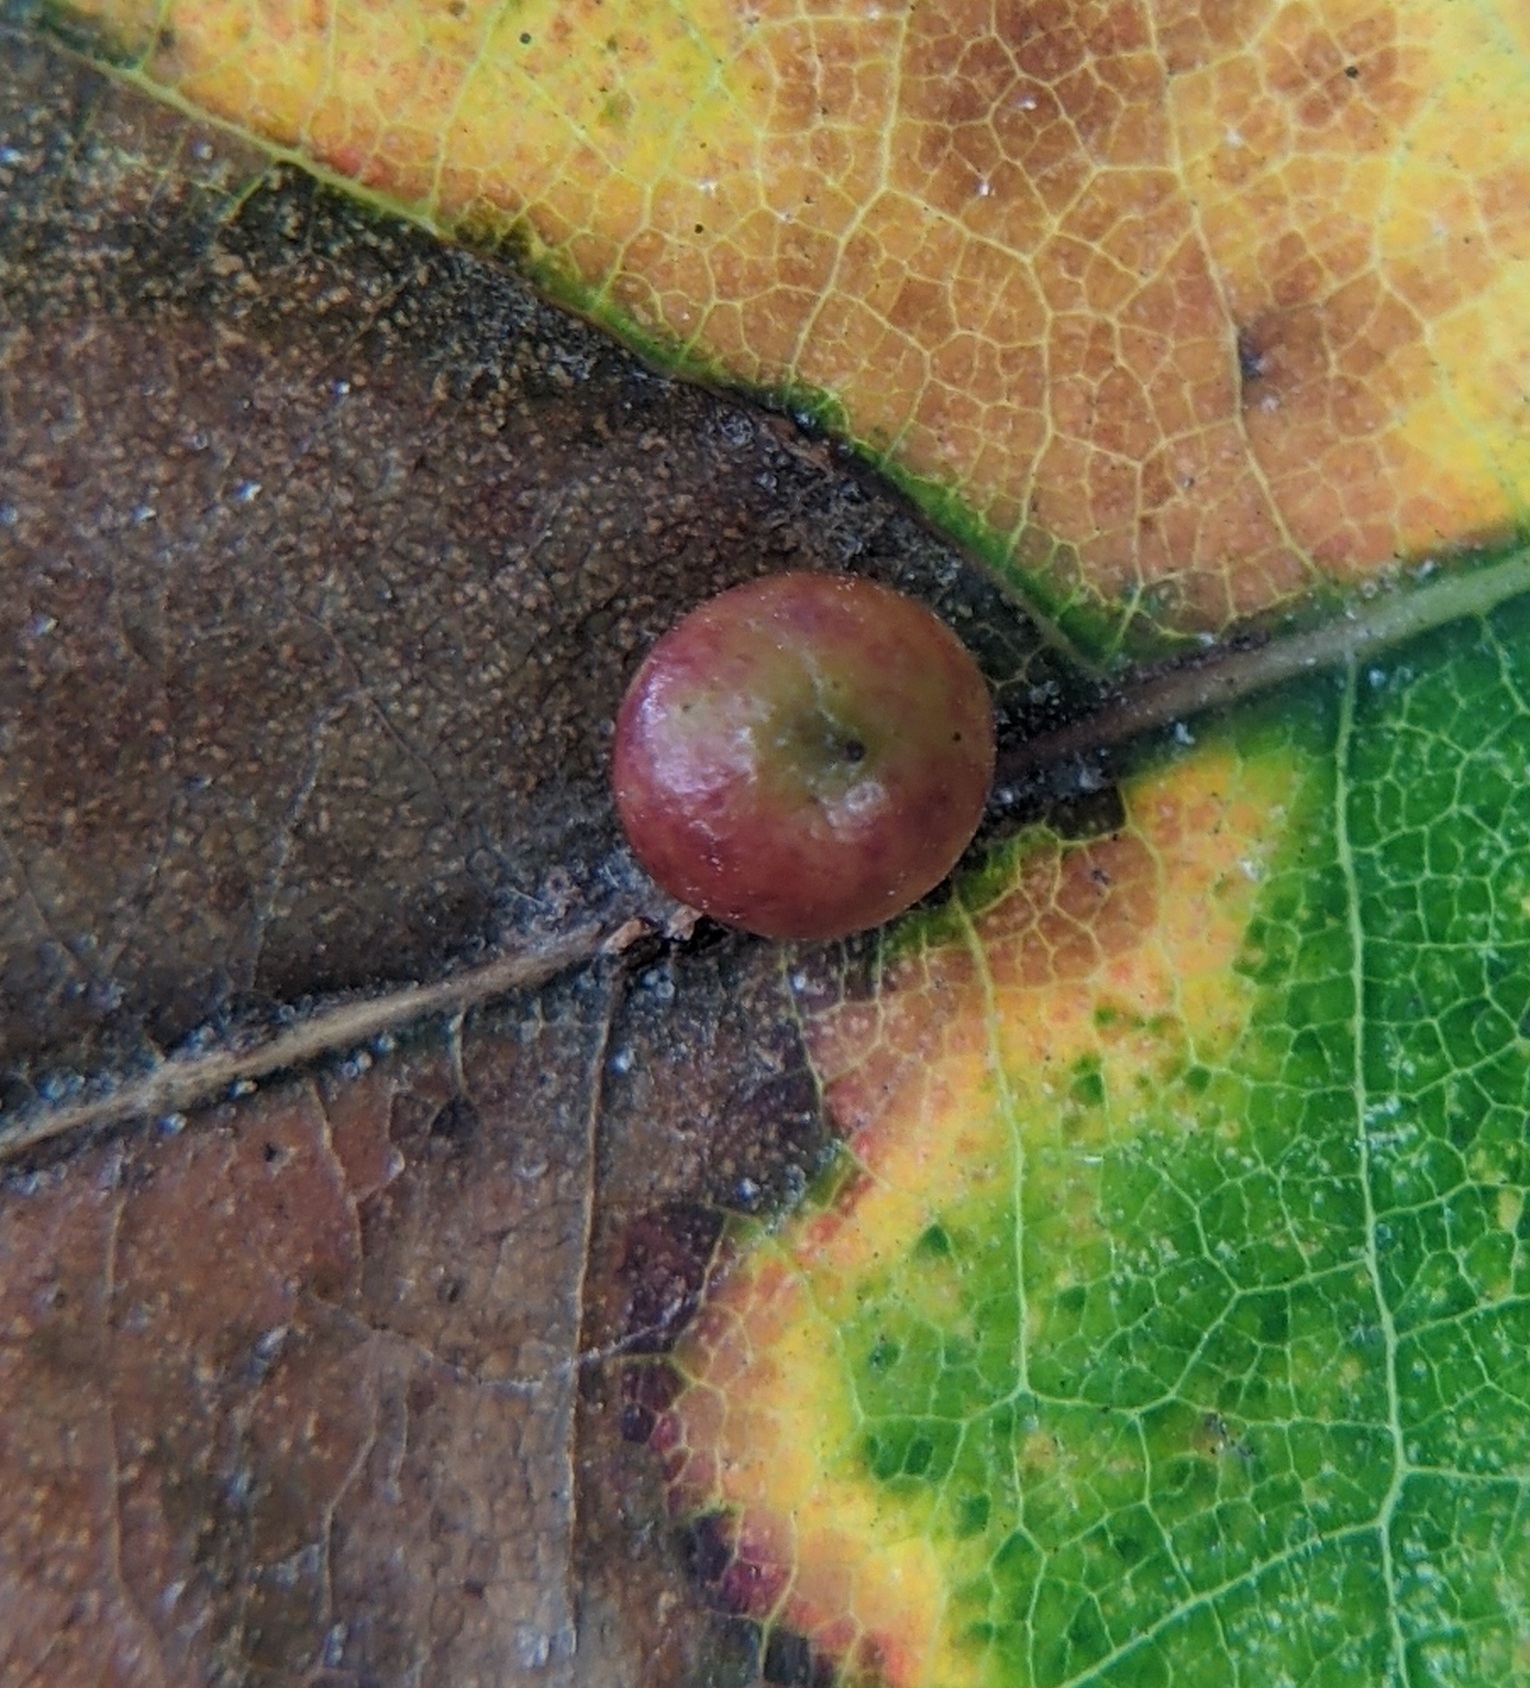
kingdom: Animalia
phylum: Arthropoda
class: Insecta
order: Hymenoptera
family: Cynipidae
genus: Zopheroteras
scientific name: Zopheroteras
